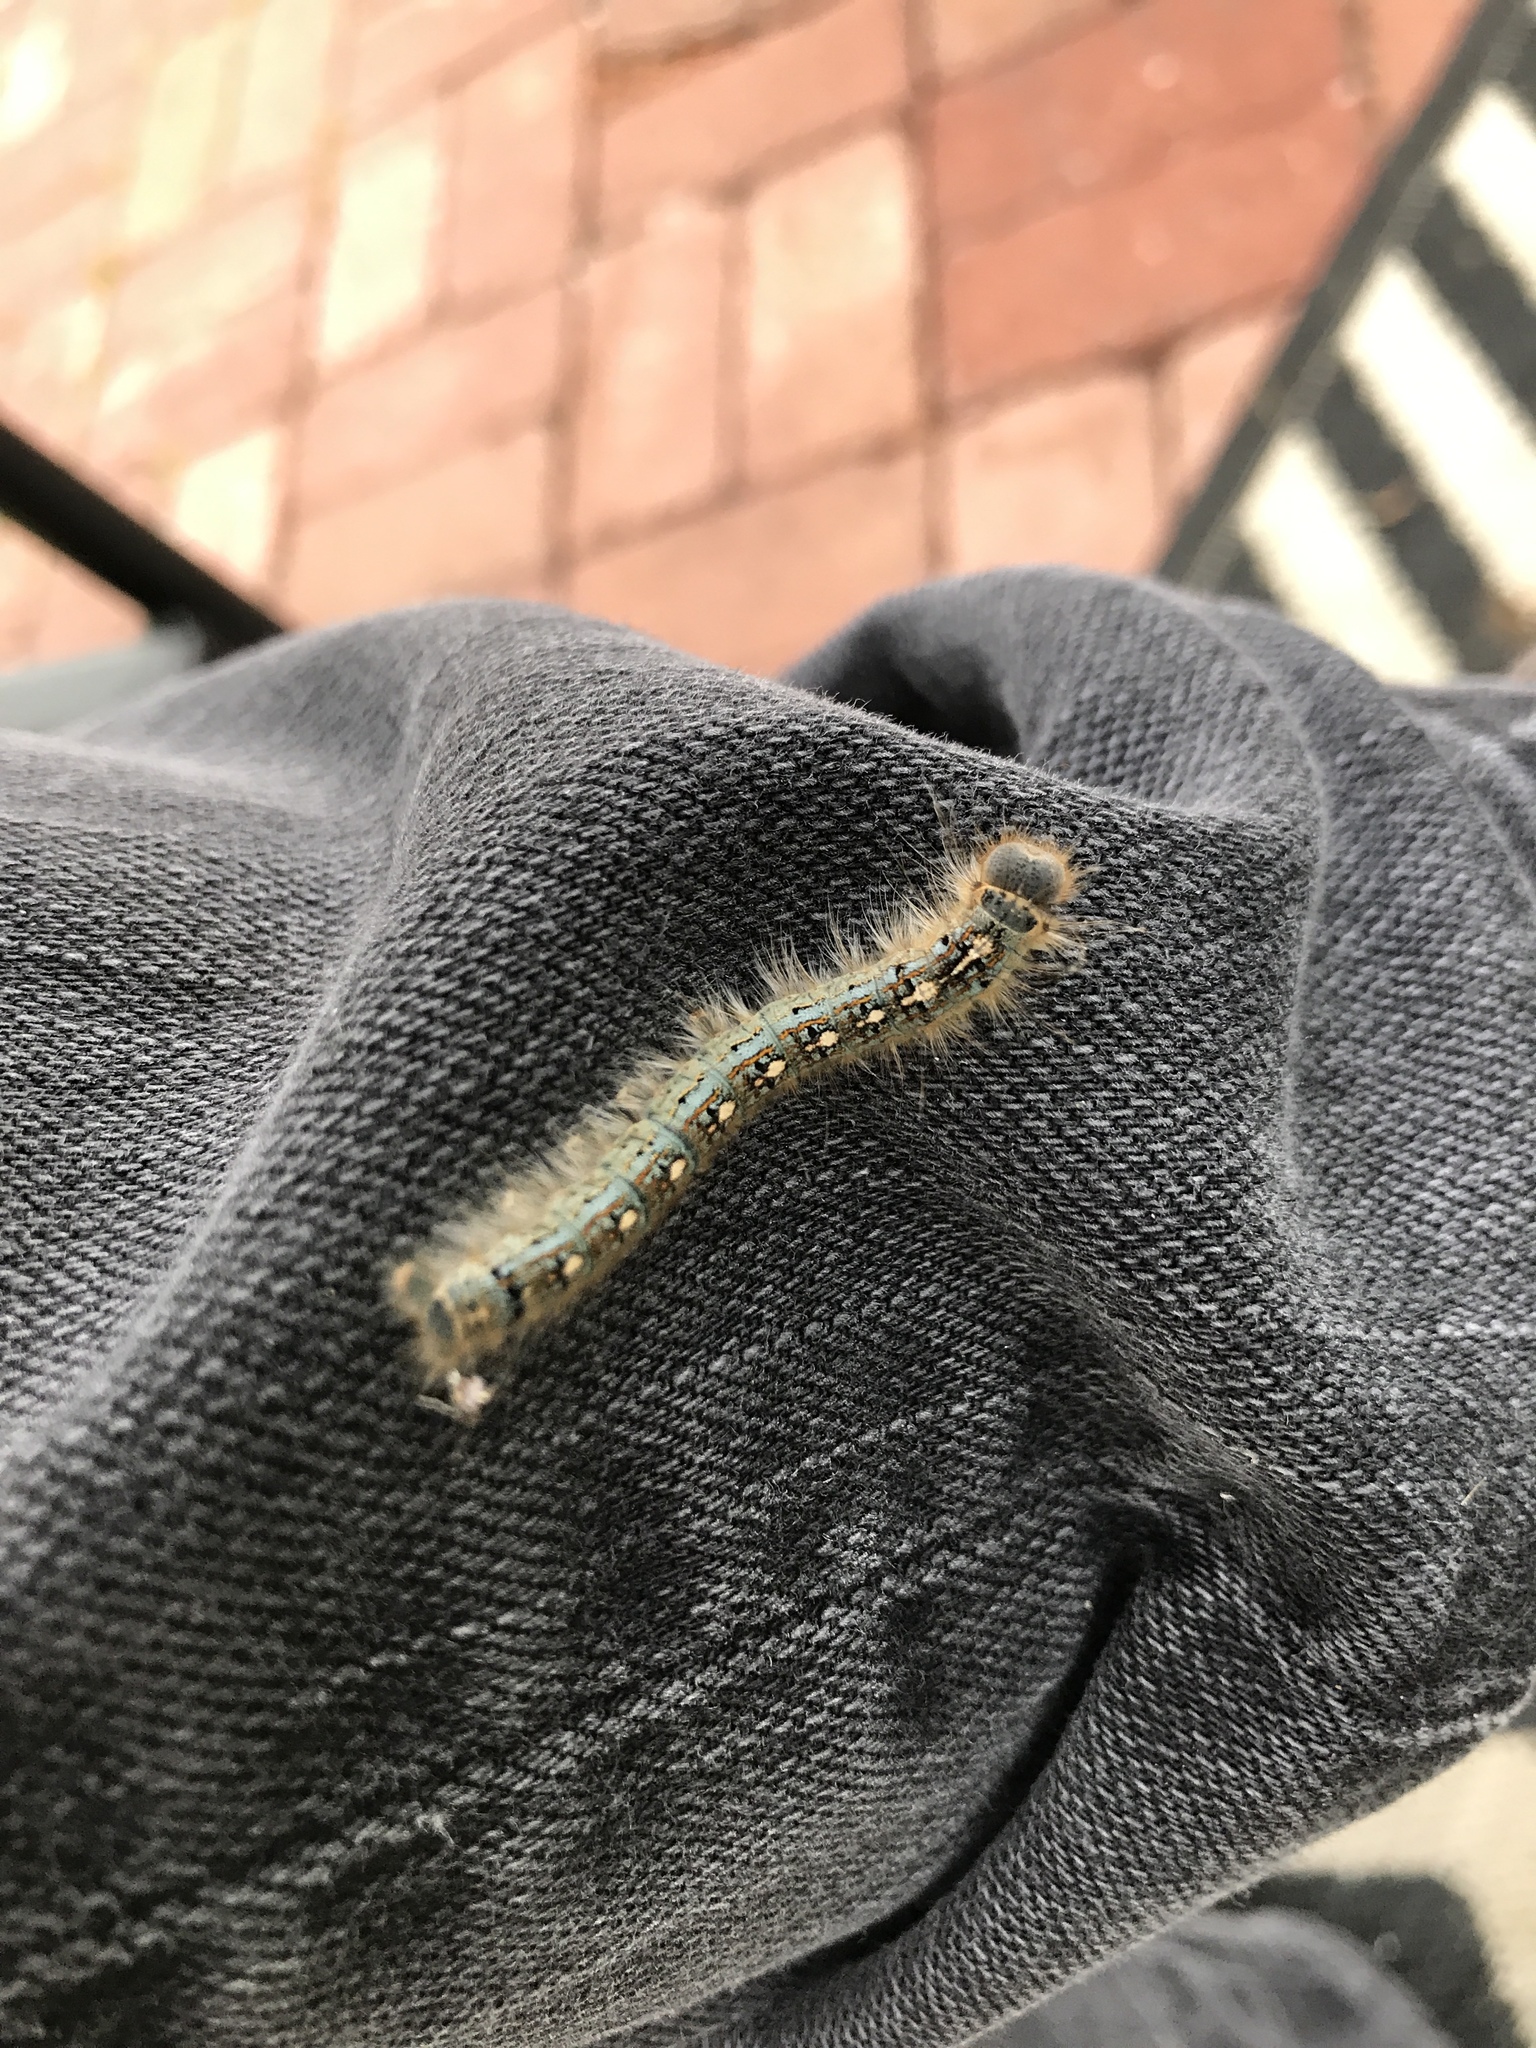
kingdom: Animalia
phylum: Arthropoda
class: Insecta
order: Lepidoptera
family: Lasiocampidae
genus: Malacosoma
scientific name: Malacosoma disstria
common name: Forest tent caterpillar
